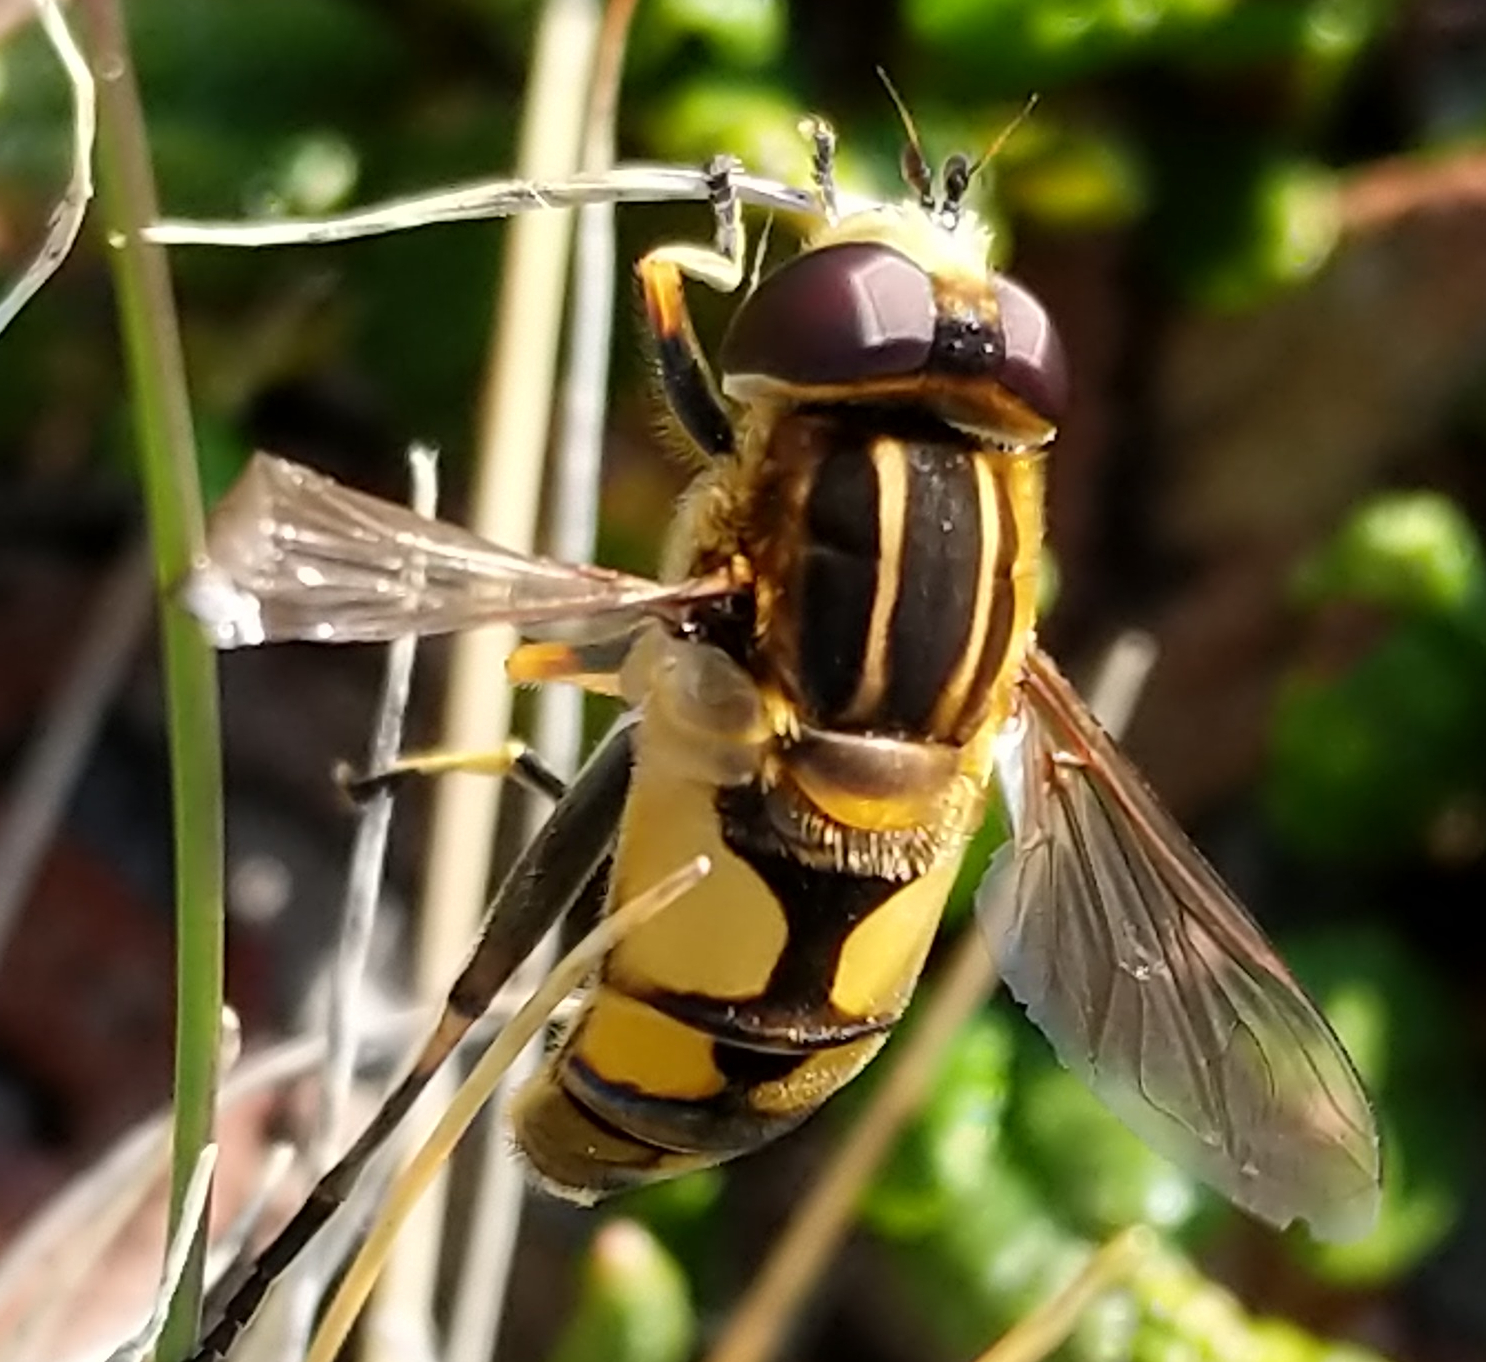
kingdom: Animalia
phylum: Arthropoda
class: Insecta
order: Diptera
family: Syrphidae
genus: Helophilus
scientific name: Helophilus hybridus
